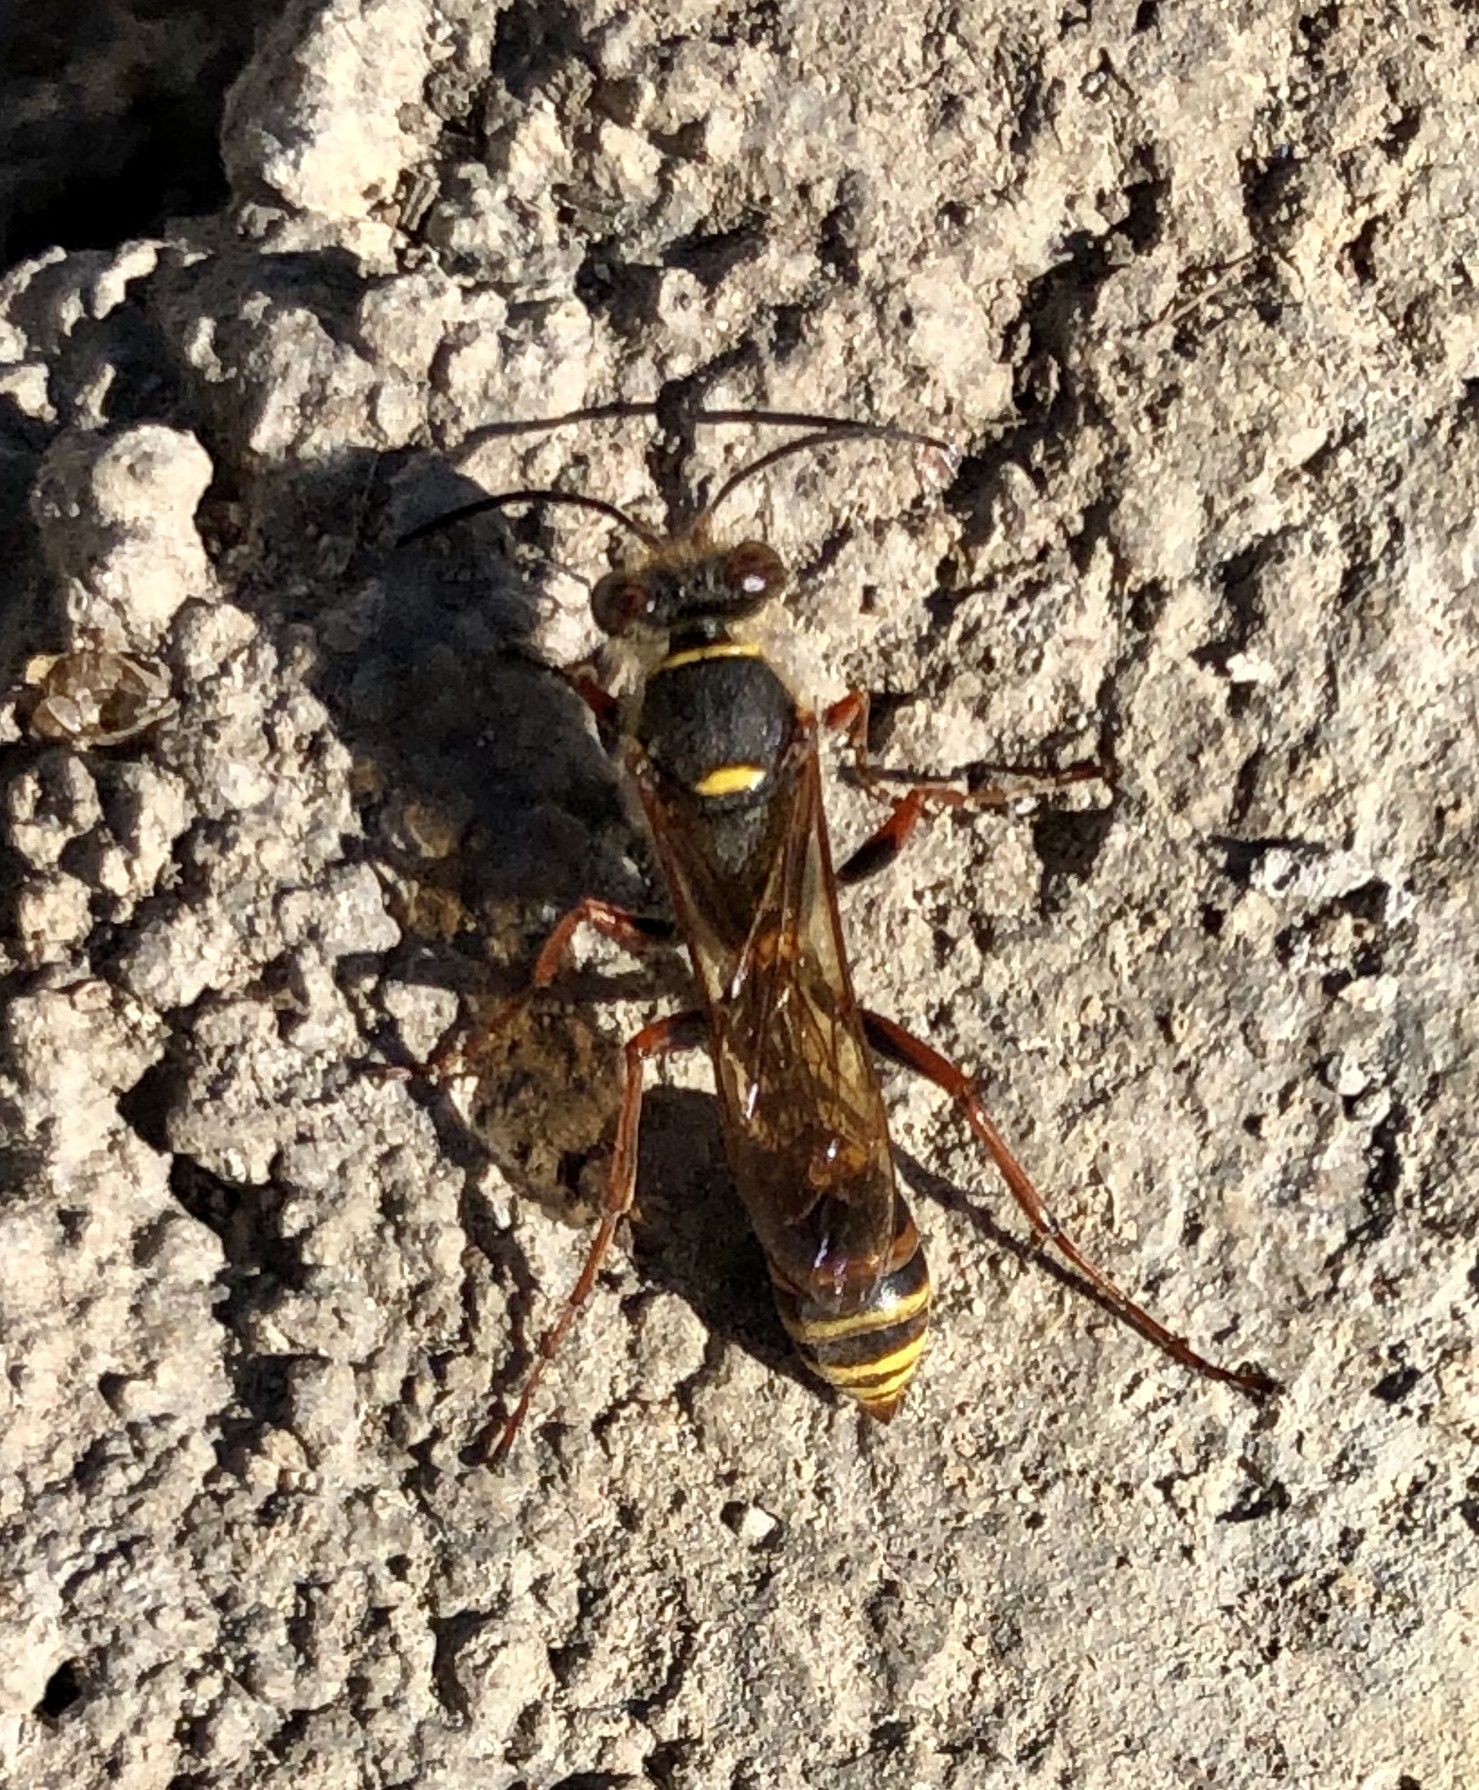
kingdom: Animalia
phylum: Arthropoda
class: Insecta
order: Hymenoptera
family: Sphecidae
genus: Sceliphron
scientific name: Sceliphron curvatum
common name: Pèlopèe
